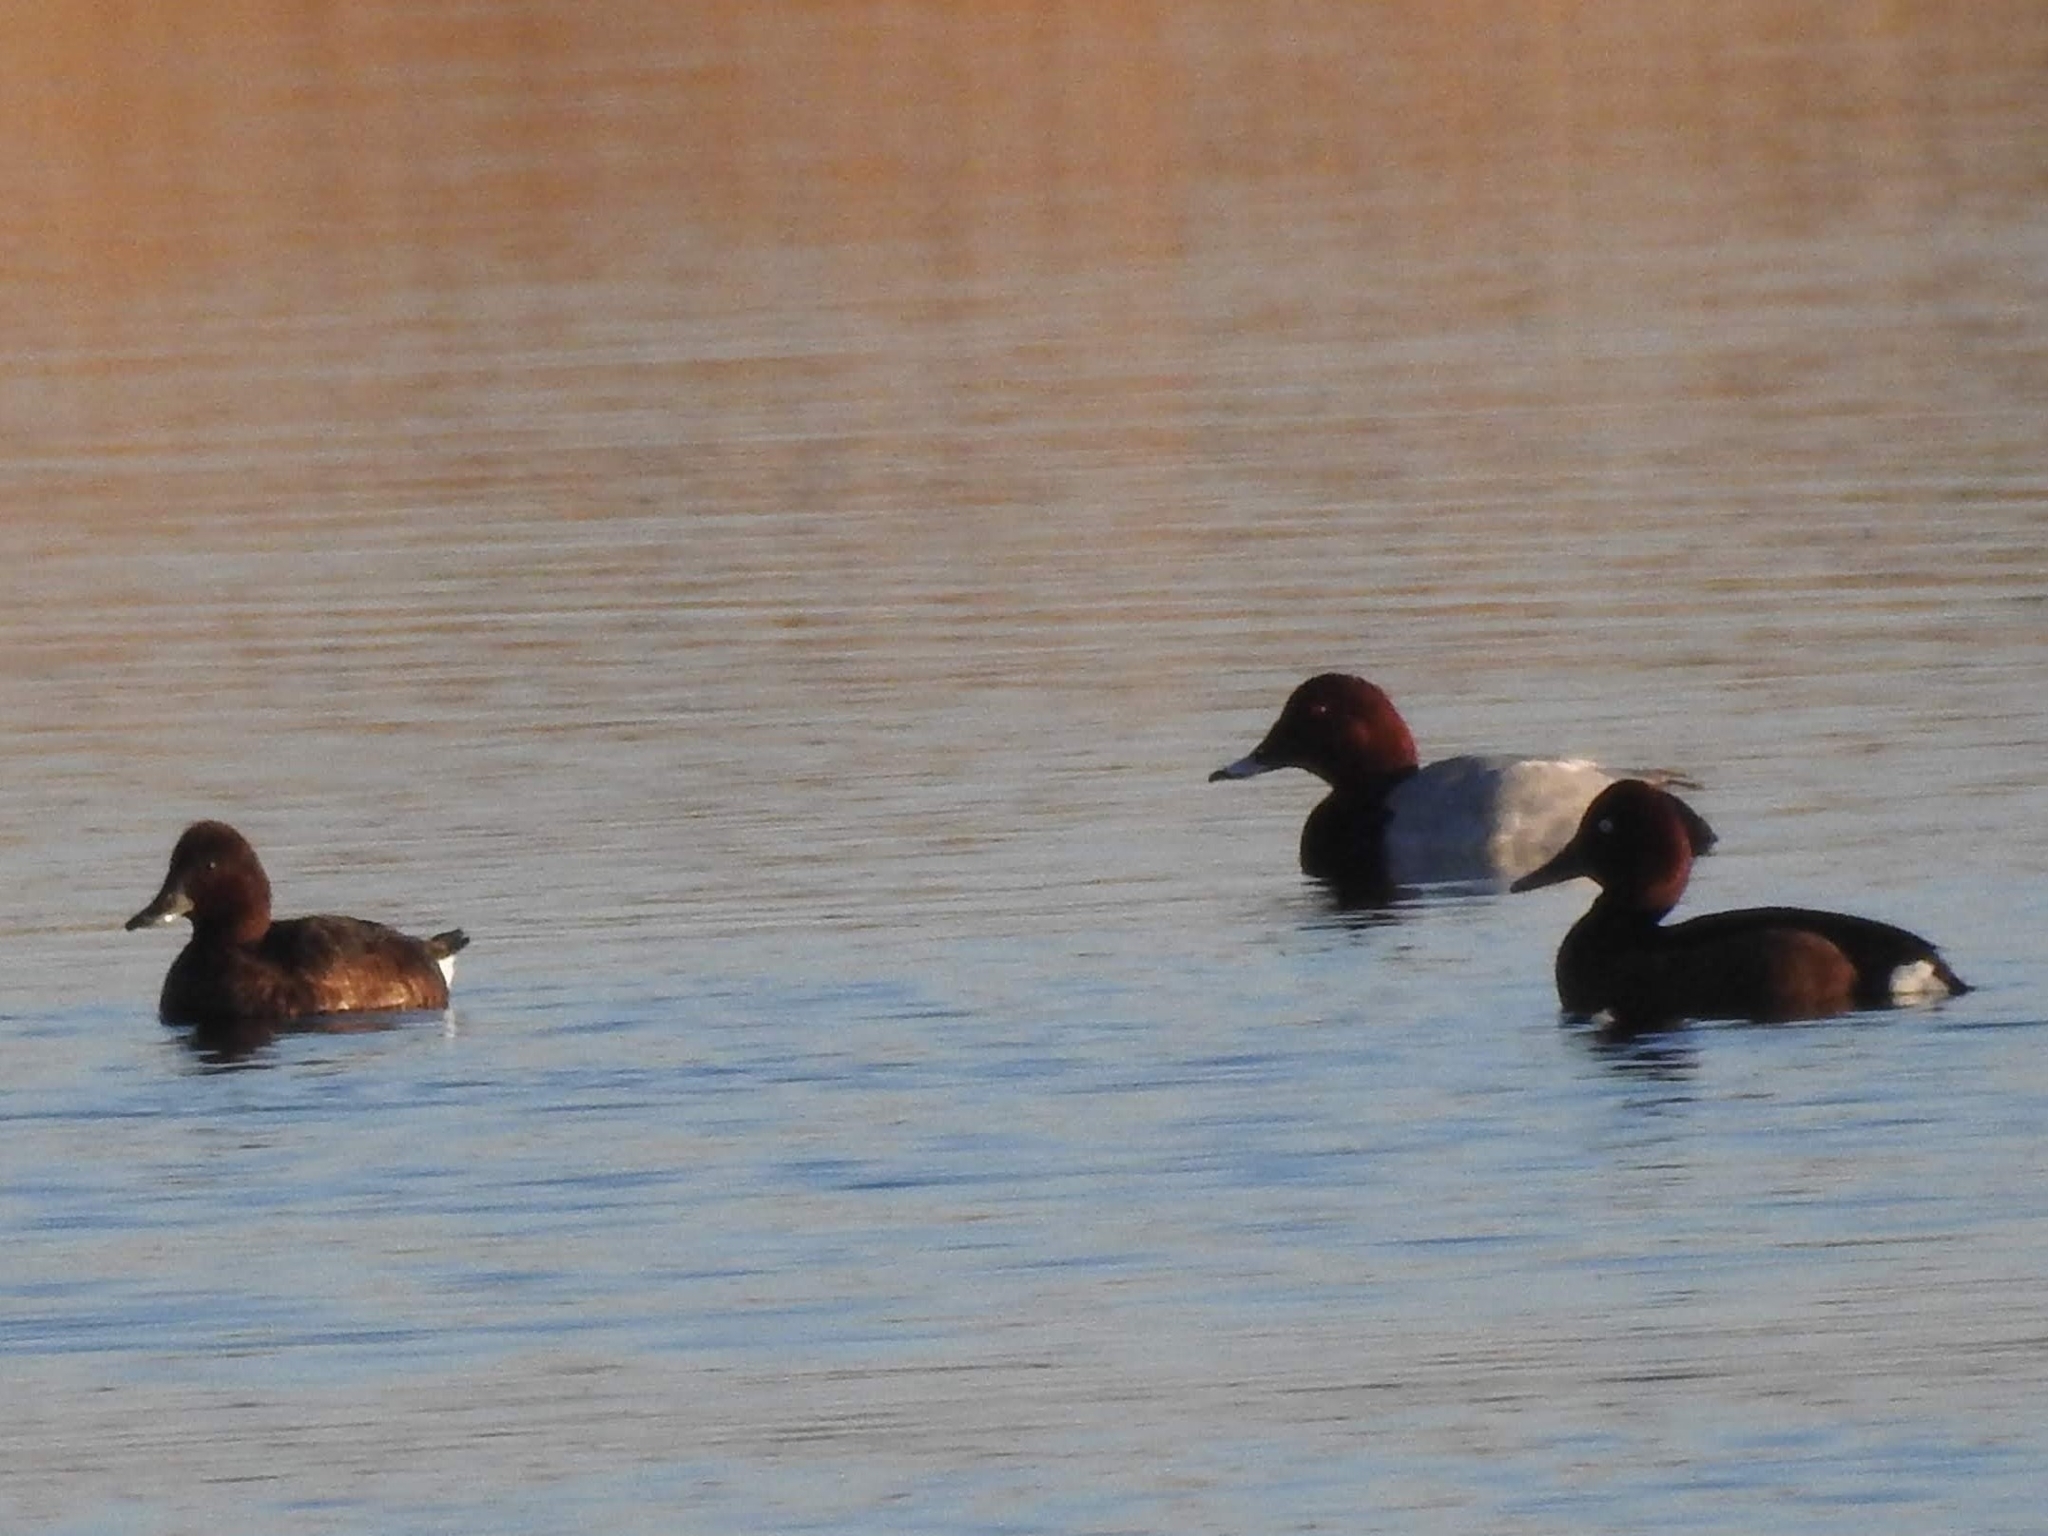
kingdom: Animalia
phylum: Chordata
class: Aves
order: Anseriformes
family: Anatidae
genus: Aythya
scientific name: Aythya nyroca
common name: Ferruginous duck
